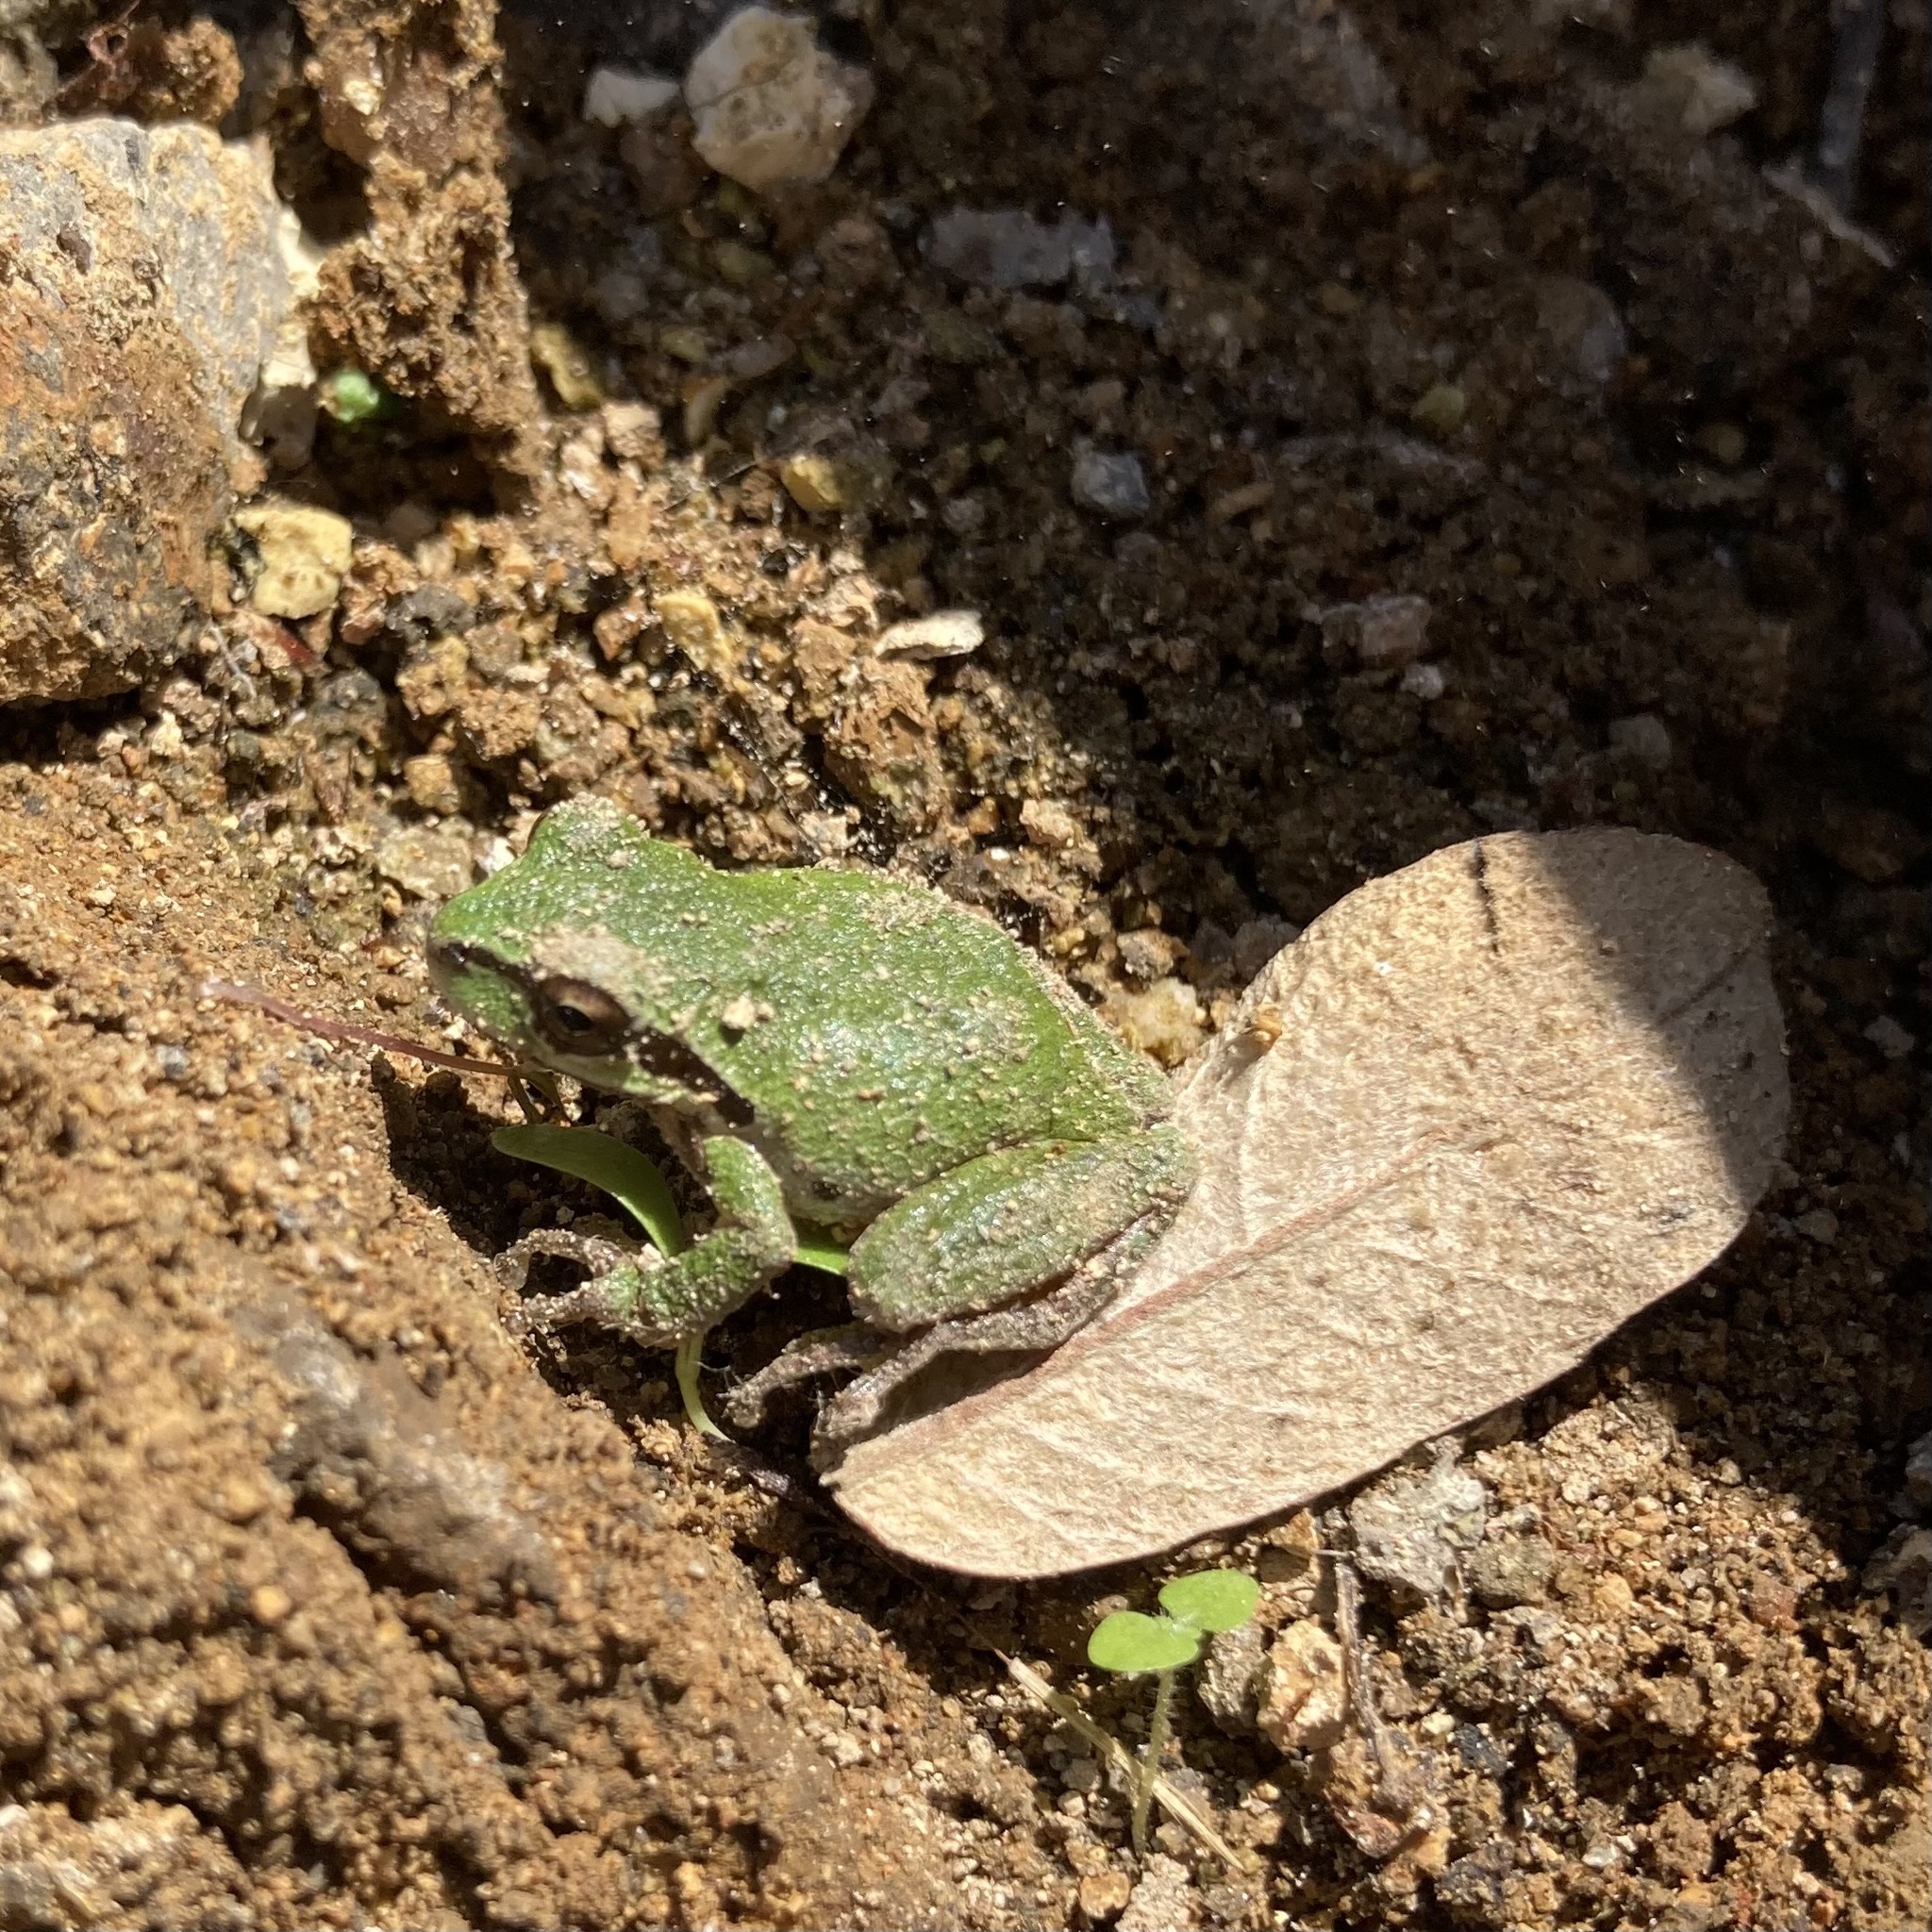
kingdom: Animalia
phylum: Chordata
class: Amphibia
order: Anura
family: Hylidae
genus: Pseudacris
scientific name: Pseudacris regilla
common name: Pacific chorus frog
